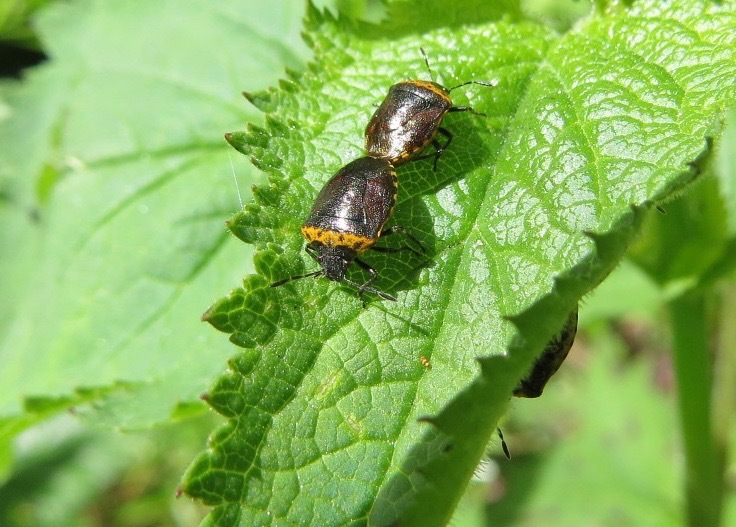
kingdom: Animalia
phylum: Arthropoda
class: Insecta
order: Hemiptera
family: Pentatomidae
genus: Cosmopepla
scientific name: Cosmopepla uhleri
